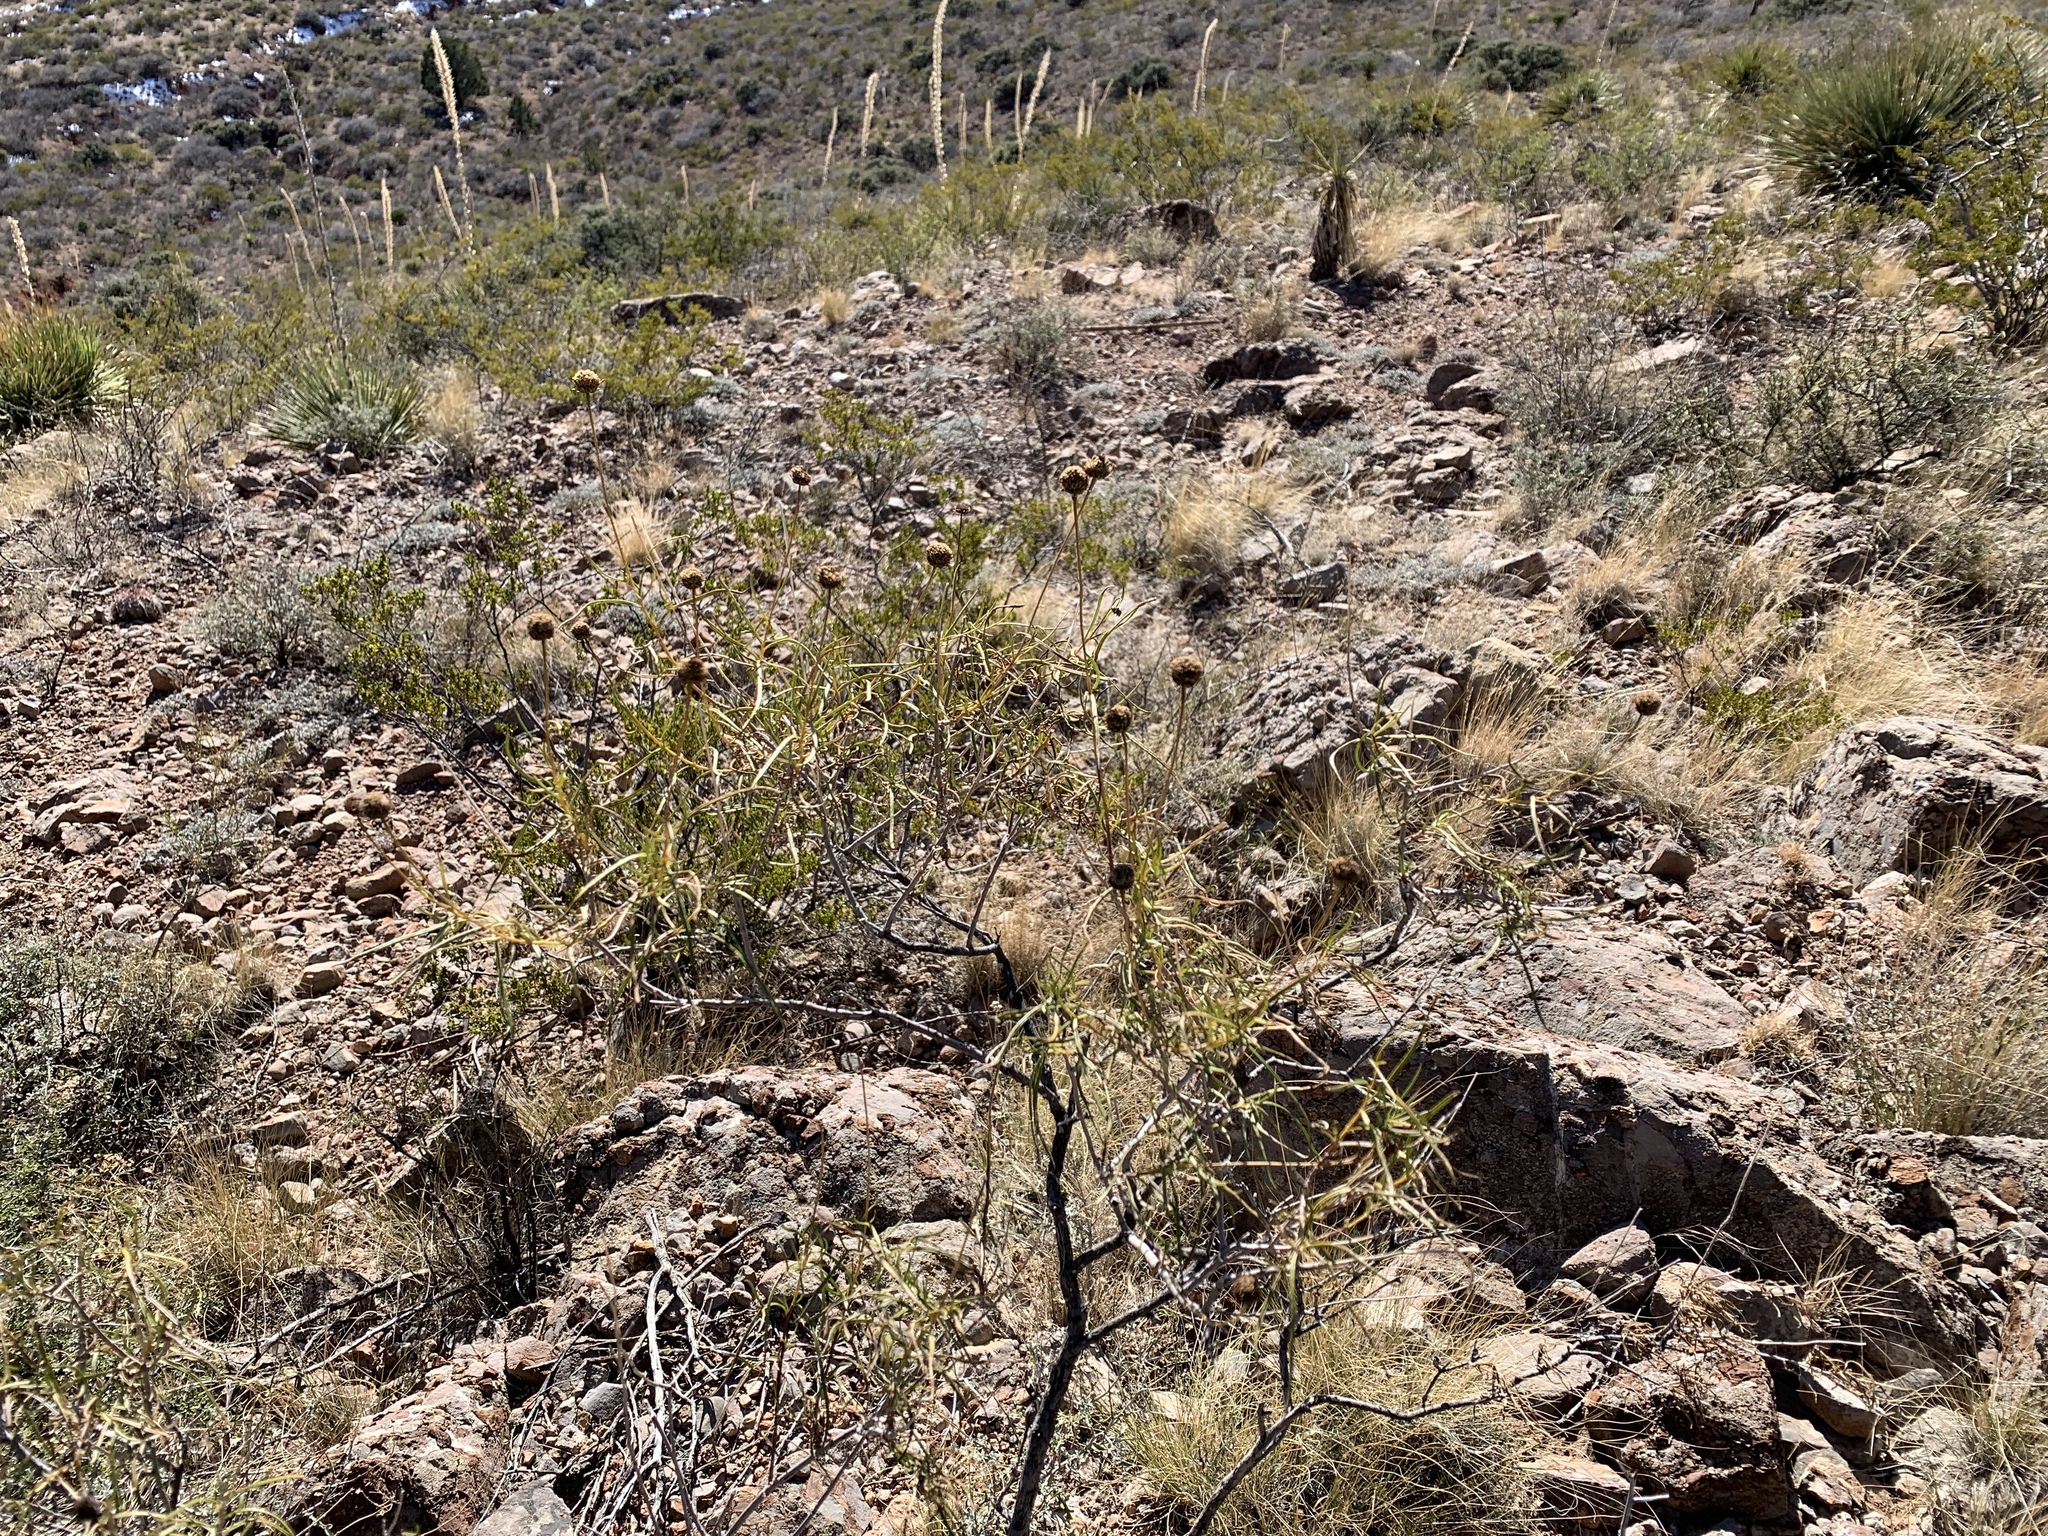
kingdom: Plantae
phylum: Tracheophyta
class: Magnoliopsida
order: Asterales
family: Asteraceae
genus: Sidneya
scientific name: Sidneya tenuifolia
